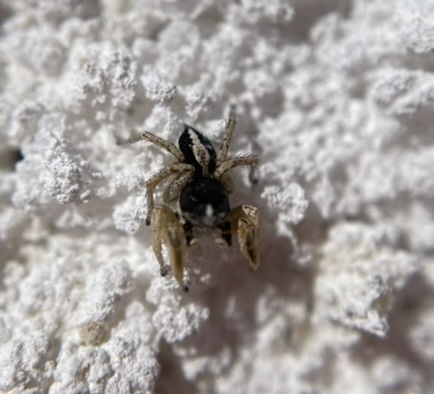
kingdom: Animalia
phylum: Arthropoda
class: Arachnida
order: Araneae
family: Salticidae
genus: Habronattus
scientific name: Habronattus tarsalis
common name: Jumping spider
